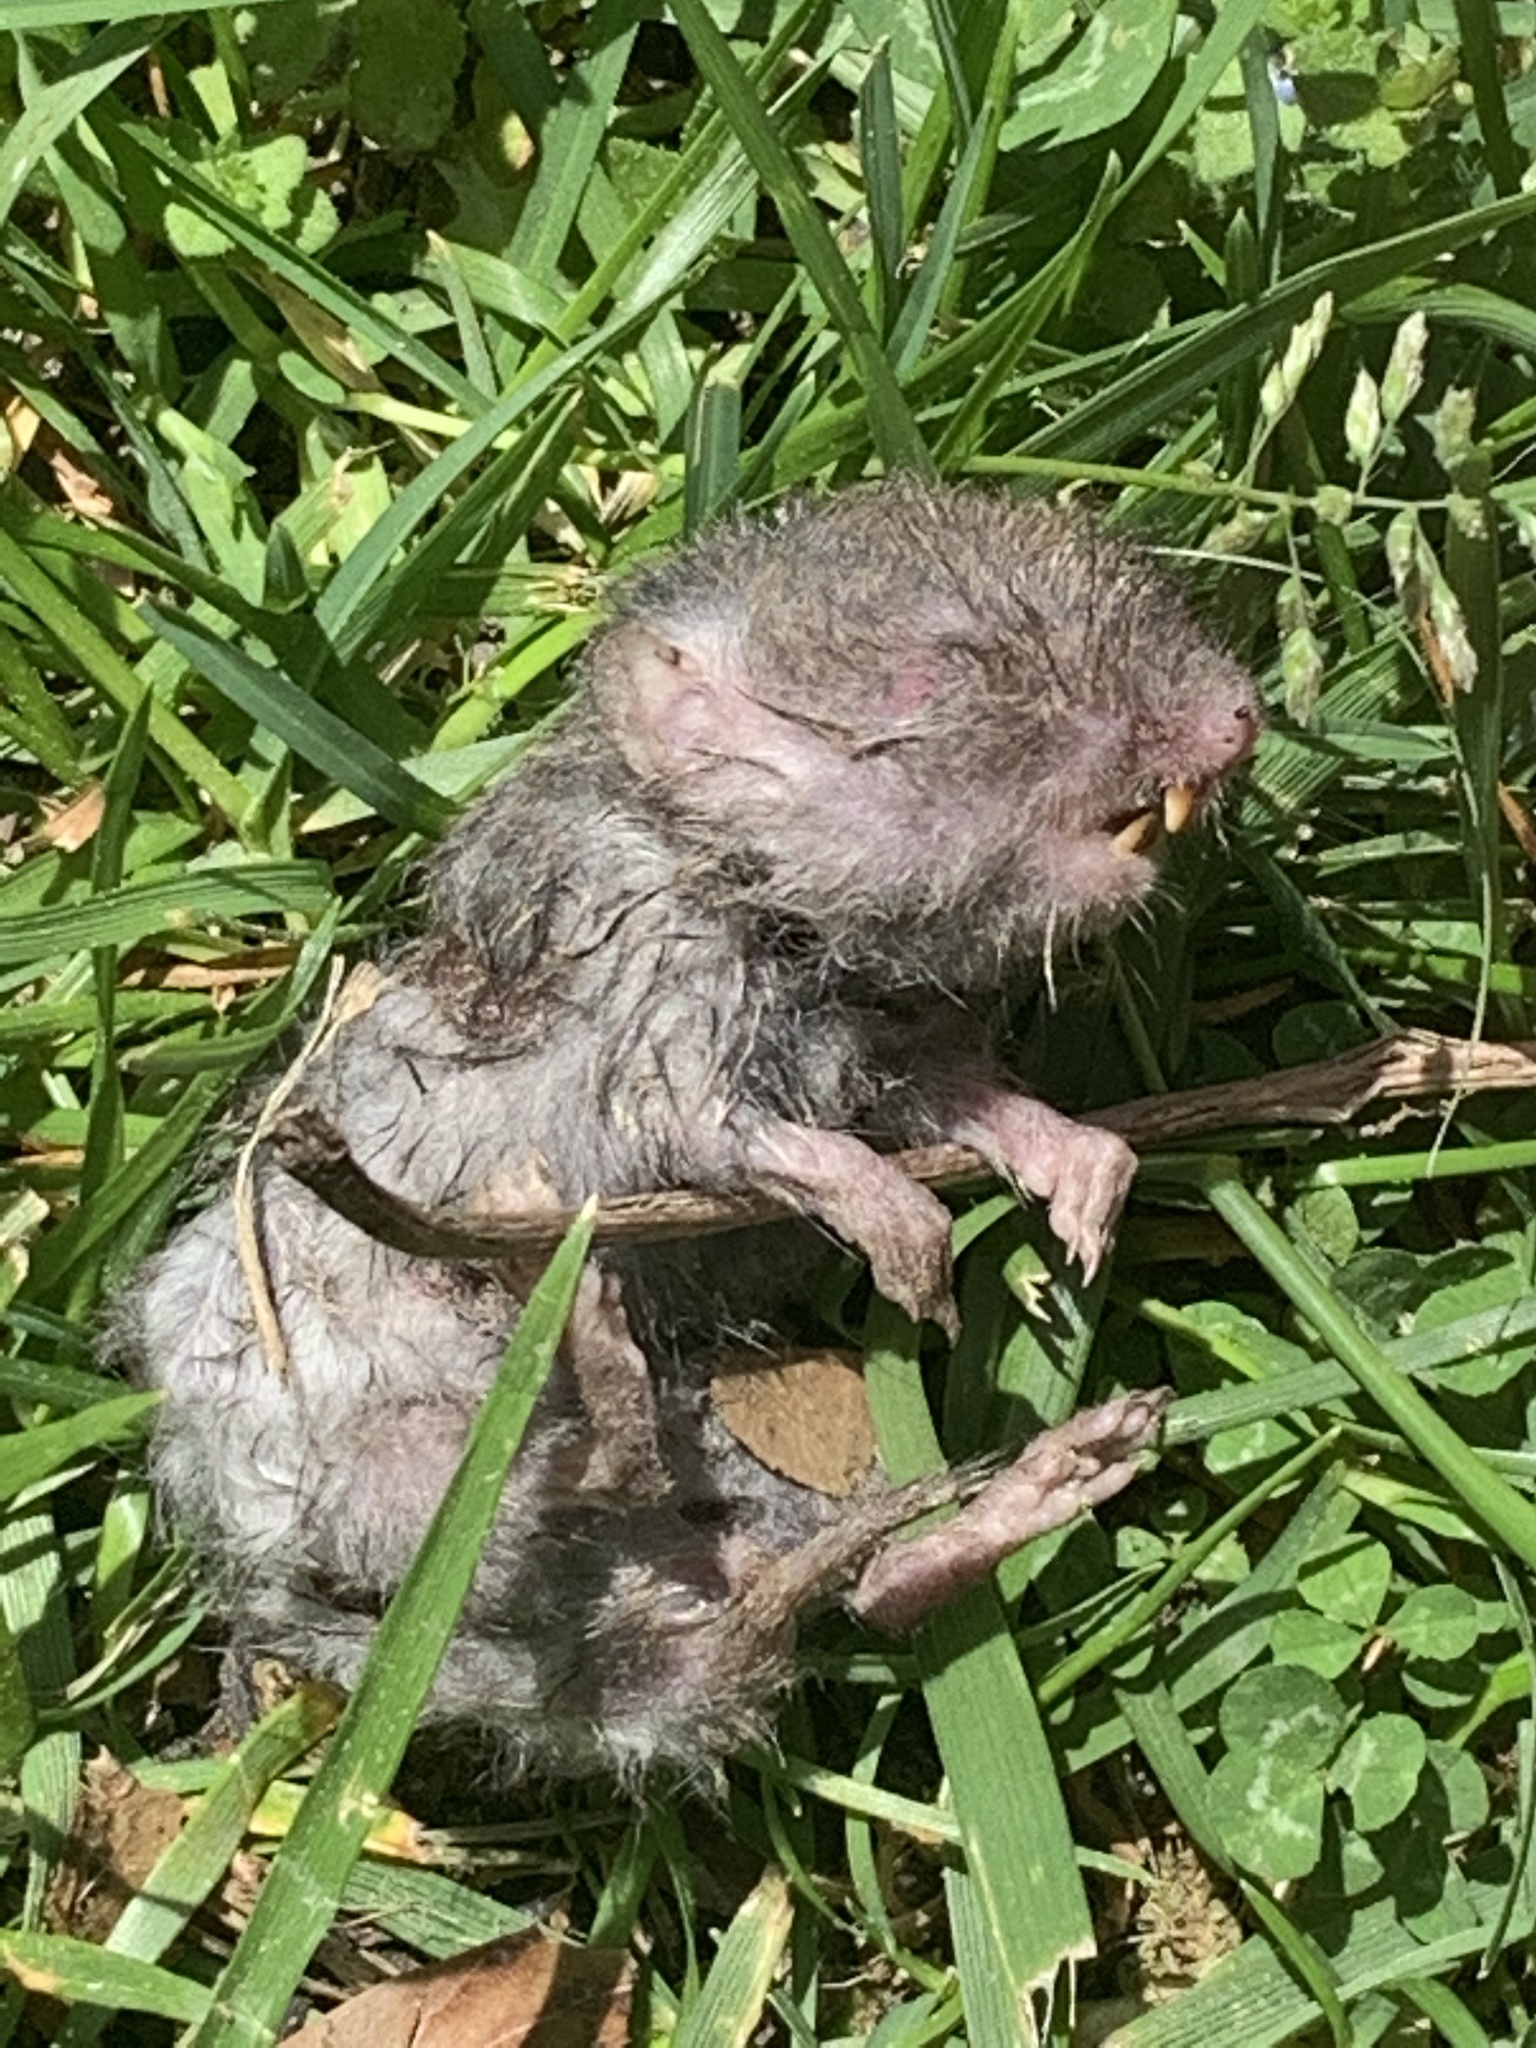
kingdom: Animalia
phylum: Chordata
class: Mammalia
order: Rodentia
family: Cricetidae
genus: Microtus
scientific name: Microtus
